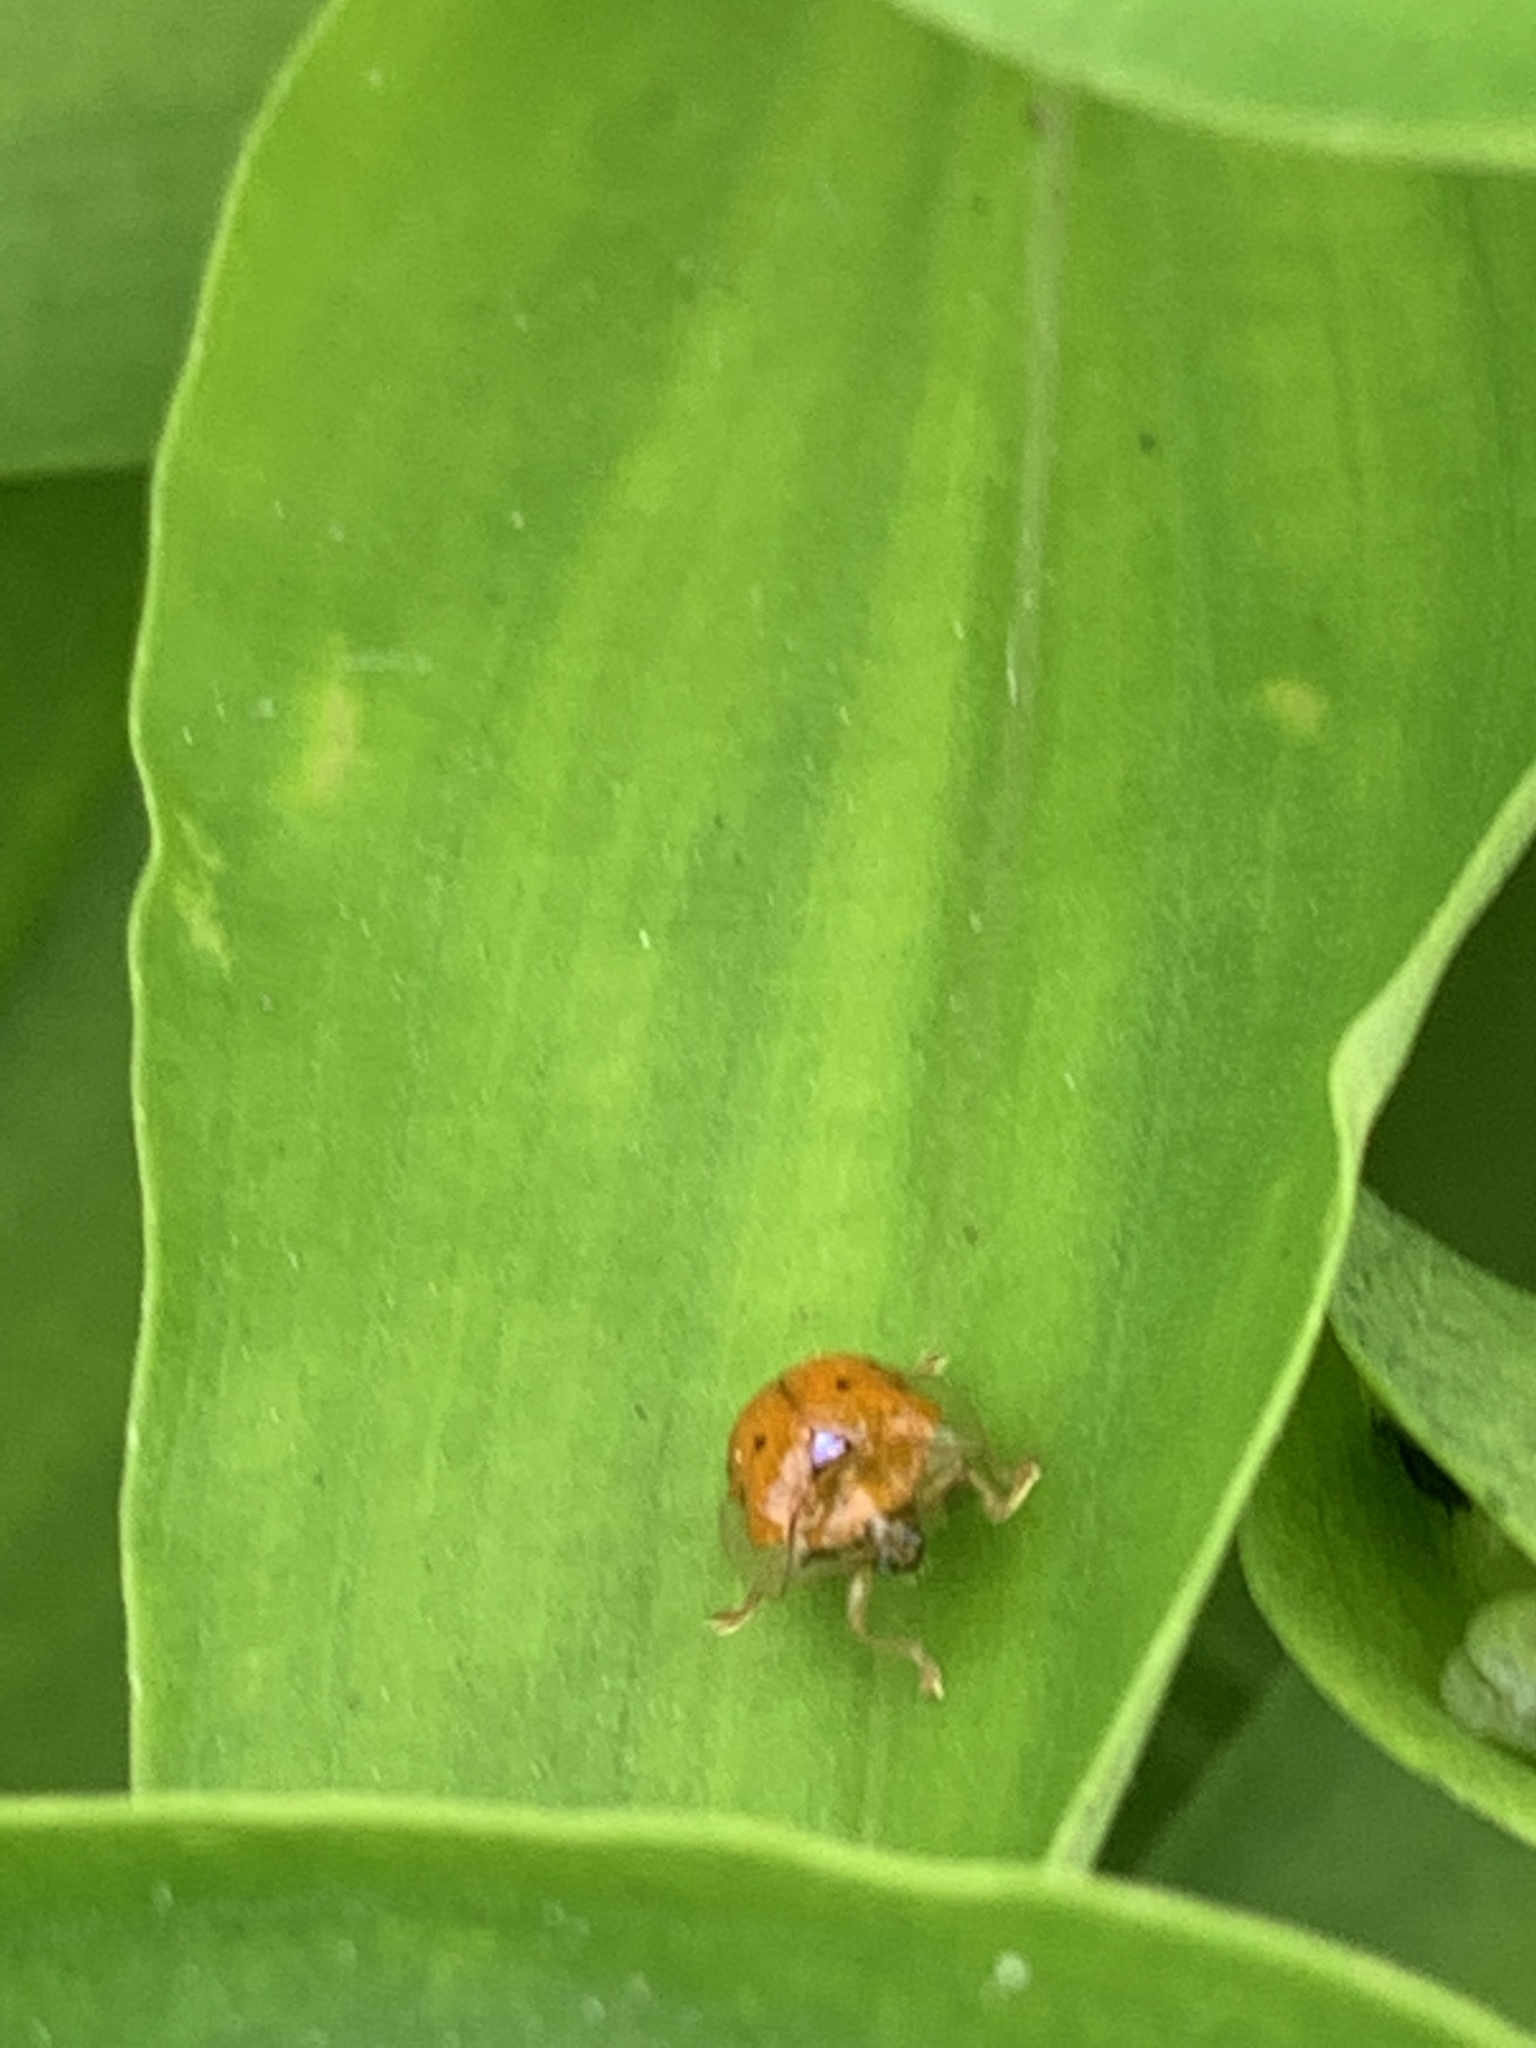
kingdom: Animalia
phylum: Arthropoda
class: Insecta
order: Coleoptera
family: Chrysomelidae
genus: Charidotella
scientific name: Charidotella sexpunctata
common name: Golden tortoise beetle
